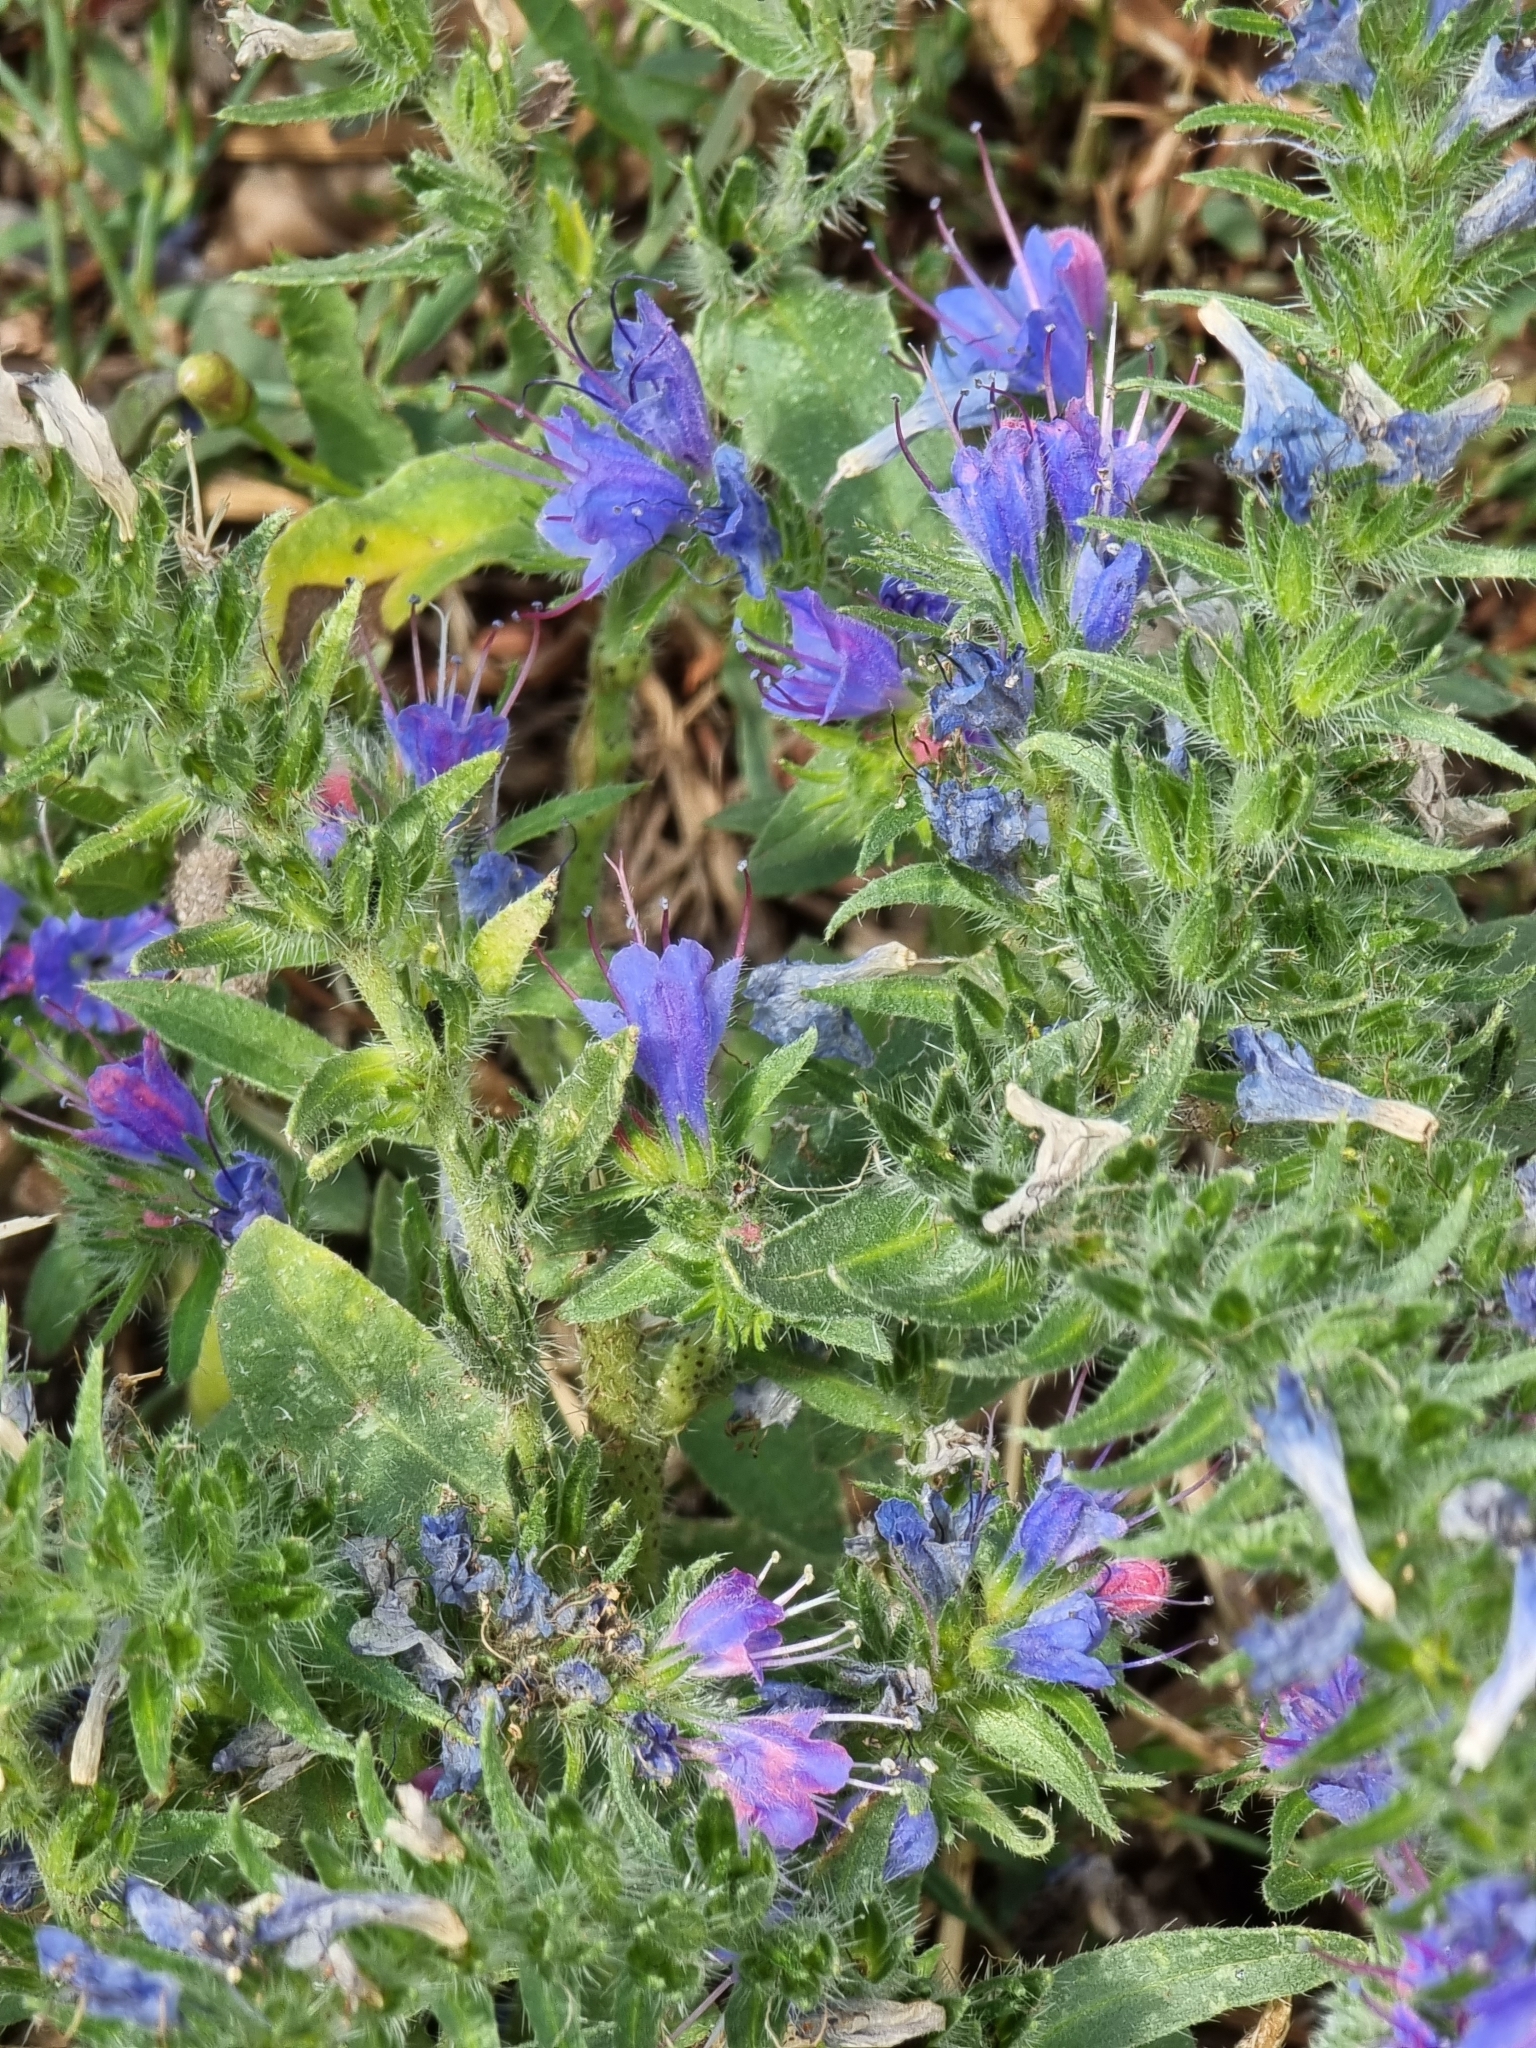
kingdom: Plantae
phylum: Tracheophyta
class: Magnoliopsida
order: Boraginales
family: Boraginaceae
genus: Echium
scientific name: Echium vulgare
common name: Common viper's bugloss
